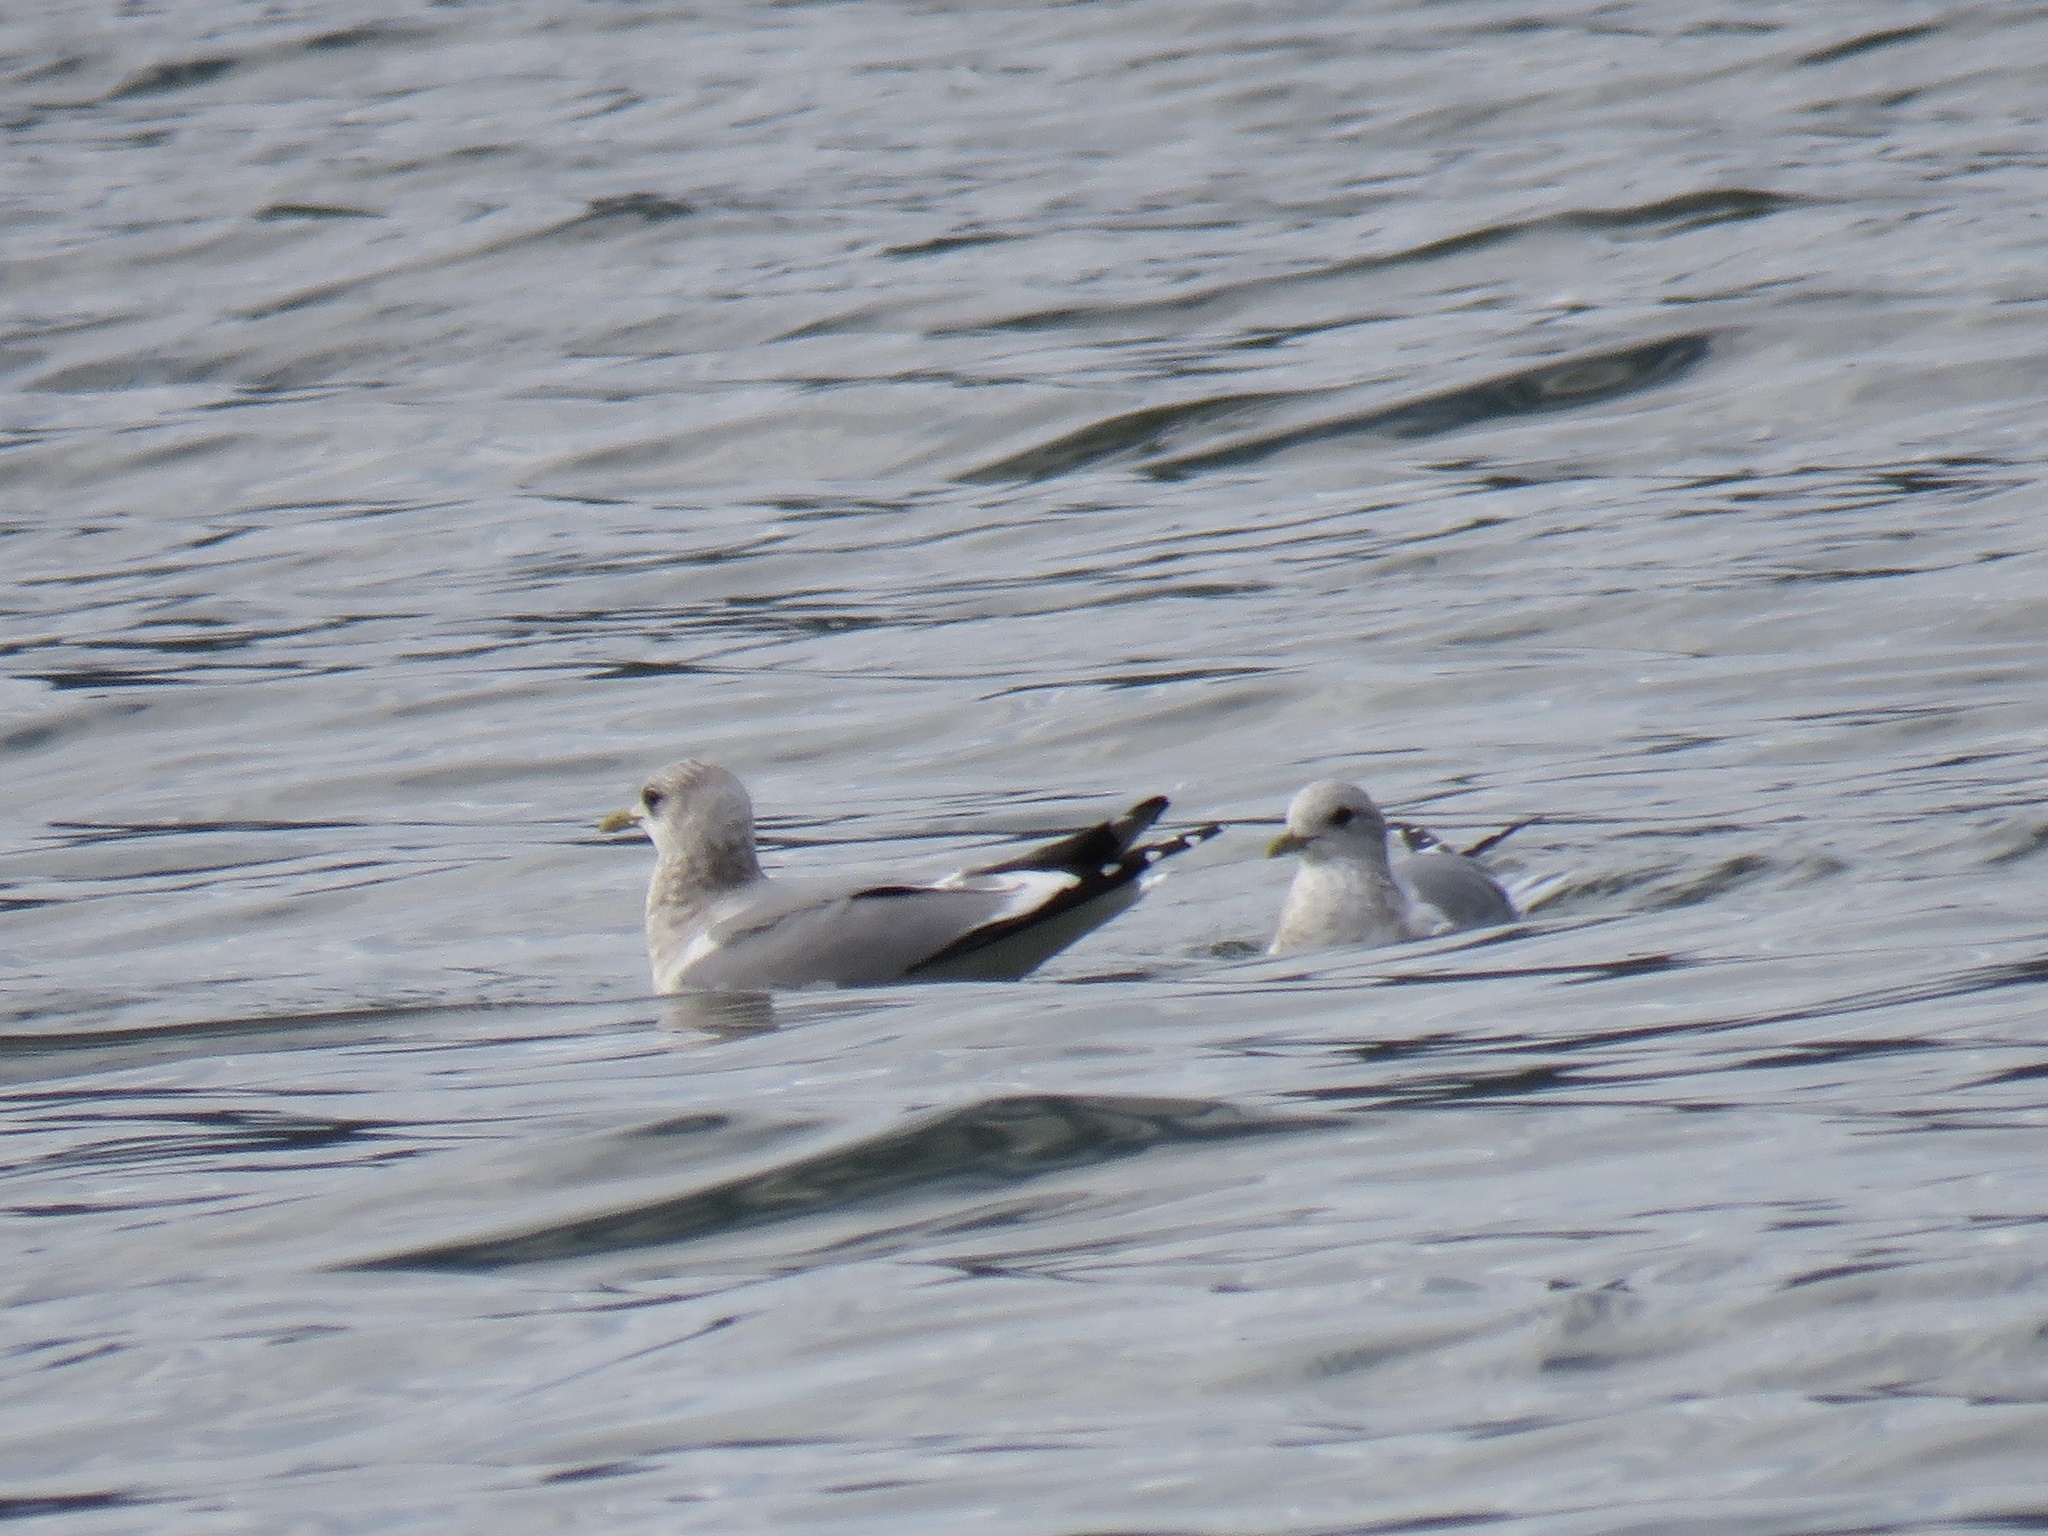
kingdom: Animalia
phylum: Chordata
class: Aves
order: Charadriiformes
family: Laridae
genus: Larus
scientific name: Larus brachyrhynchus
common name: Short-billed gull
